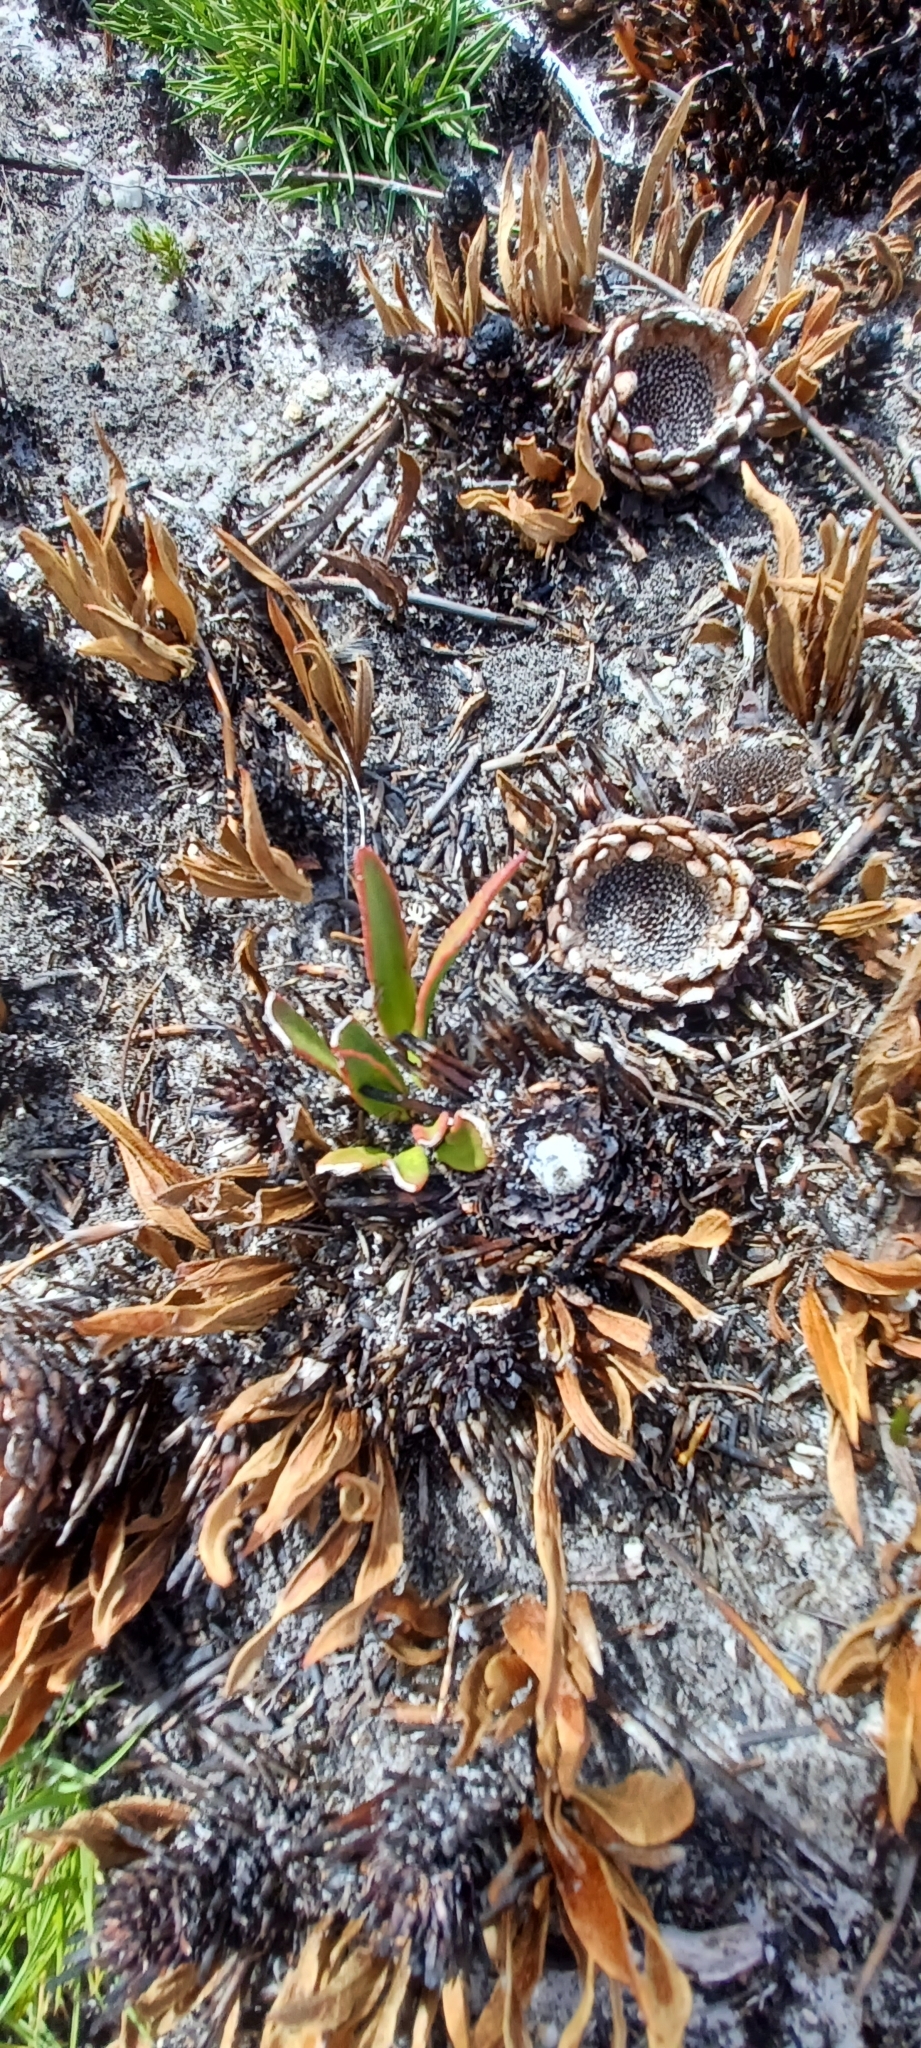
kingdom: Plantae
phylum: Tracheophyta
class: Magnoliopsida
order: Proteales
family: Proteaceae
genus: Protea
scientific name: Protea scolopendriifolia
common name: Harts-tongue-fern sugarbush
